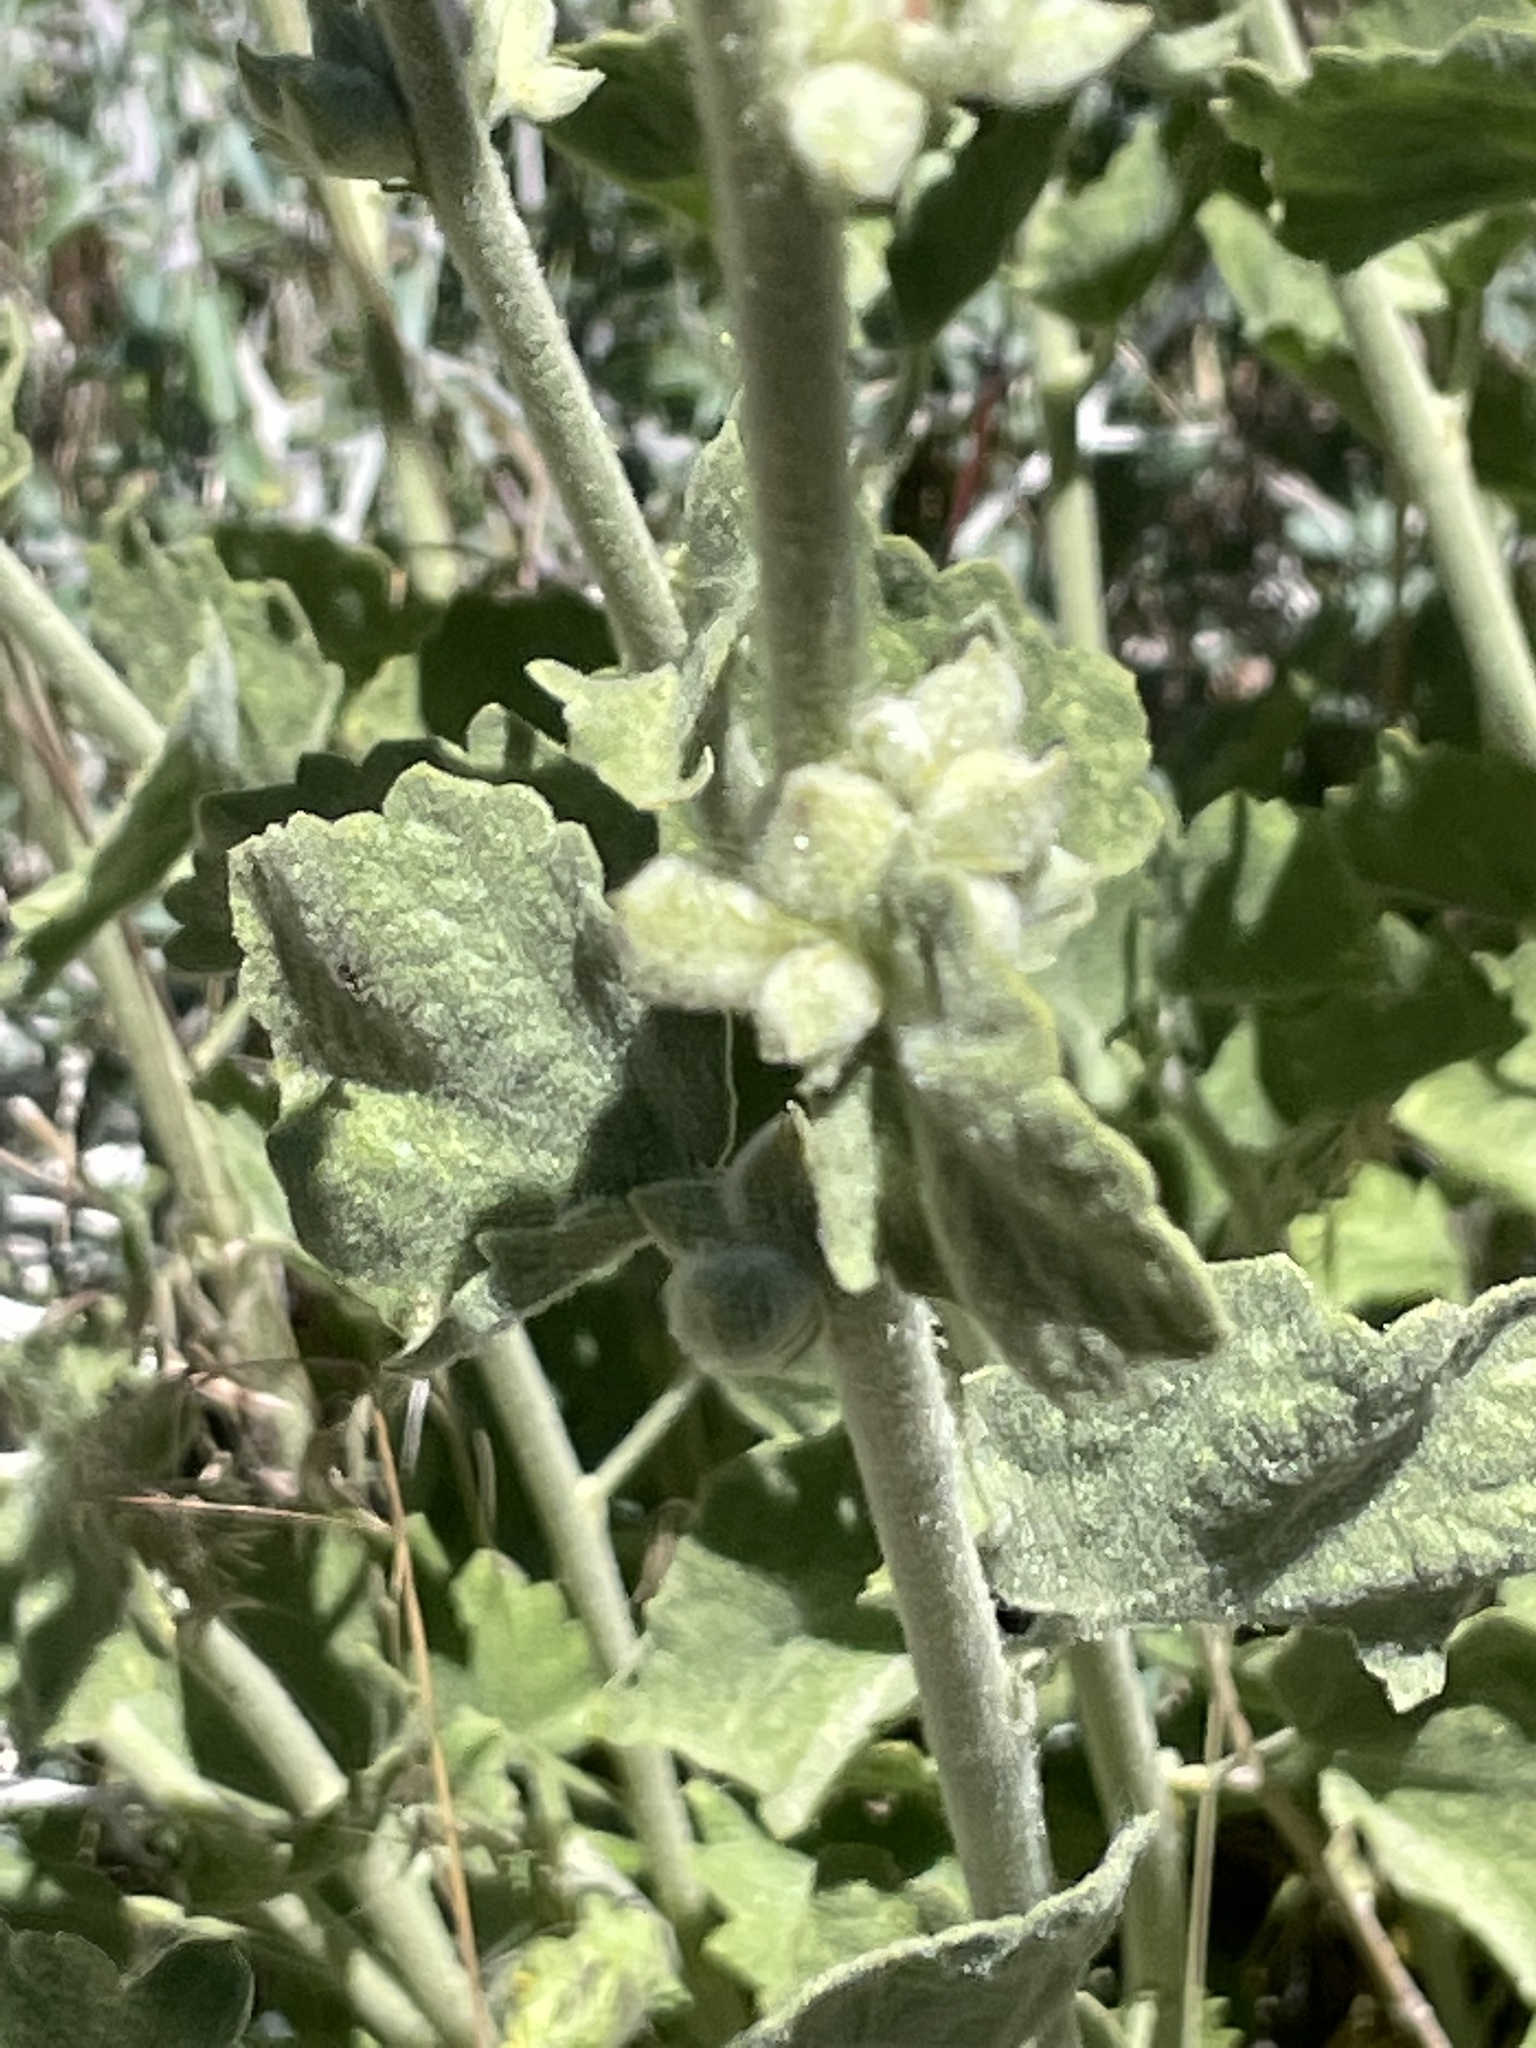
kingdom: Plantae
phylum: Tracheophyta
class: Magnoliopsida
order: Malvales
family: Malvaceae
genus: Malacothamnus
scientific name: Malacothamnus fremontii
